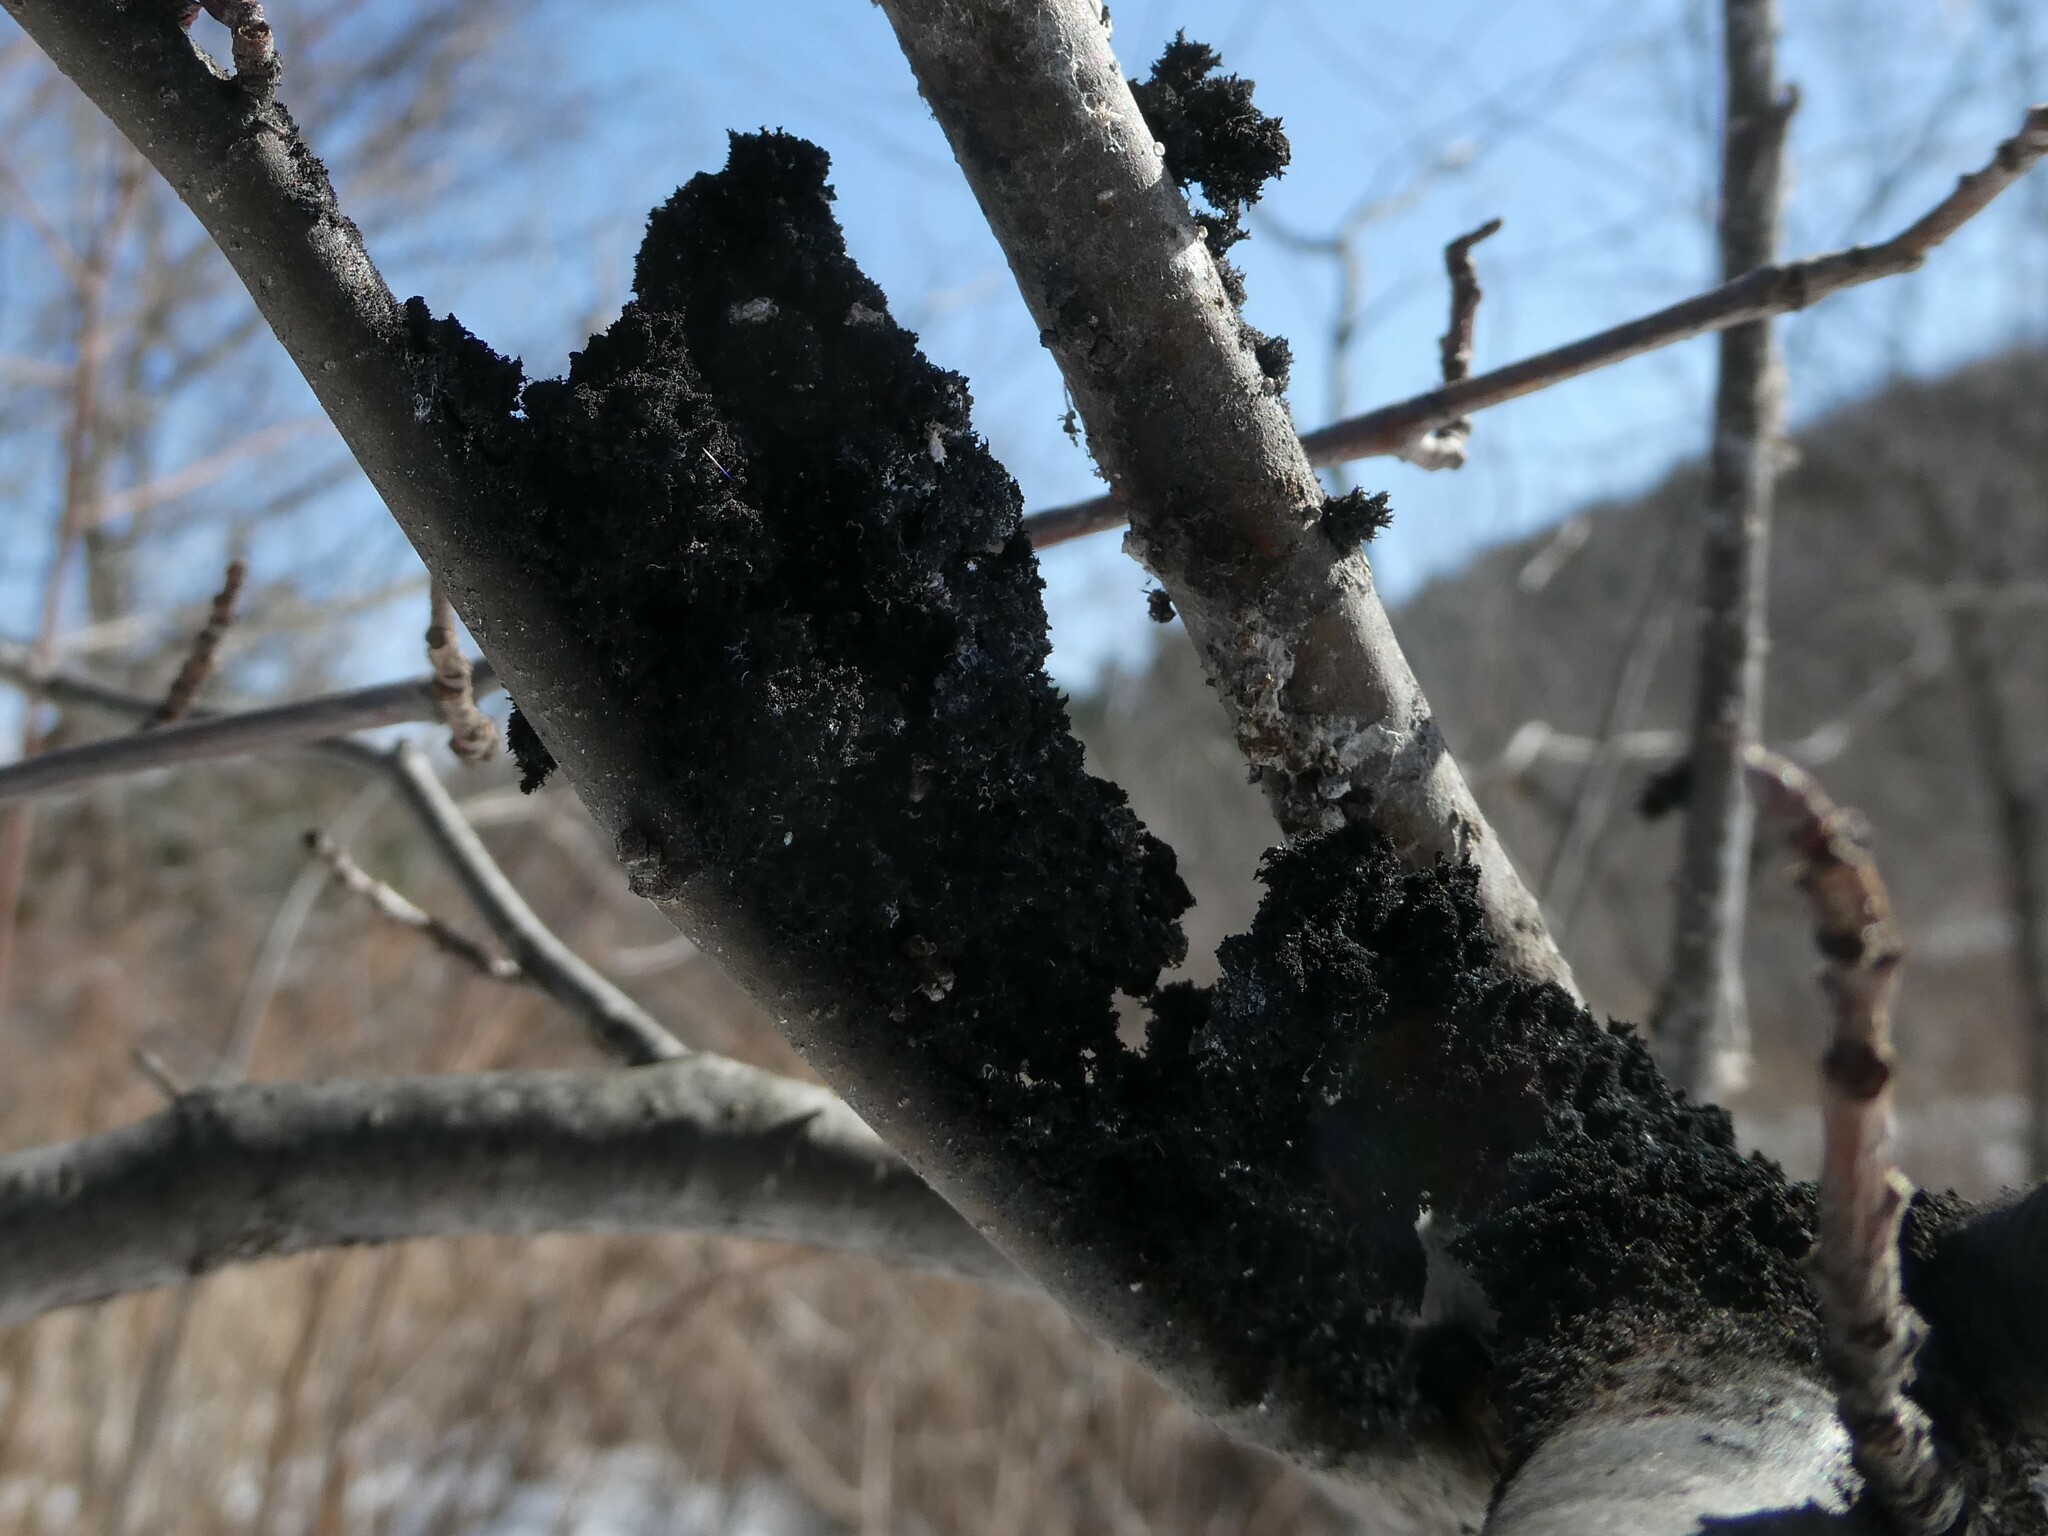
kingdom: Fungi
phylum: Ascomycota
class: Dothideomycetes
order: Capnodiales
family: Capnodiaceae
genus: Scorias
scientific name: Scorias spongiosa
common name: Black sooty mold
